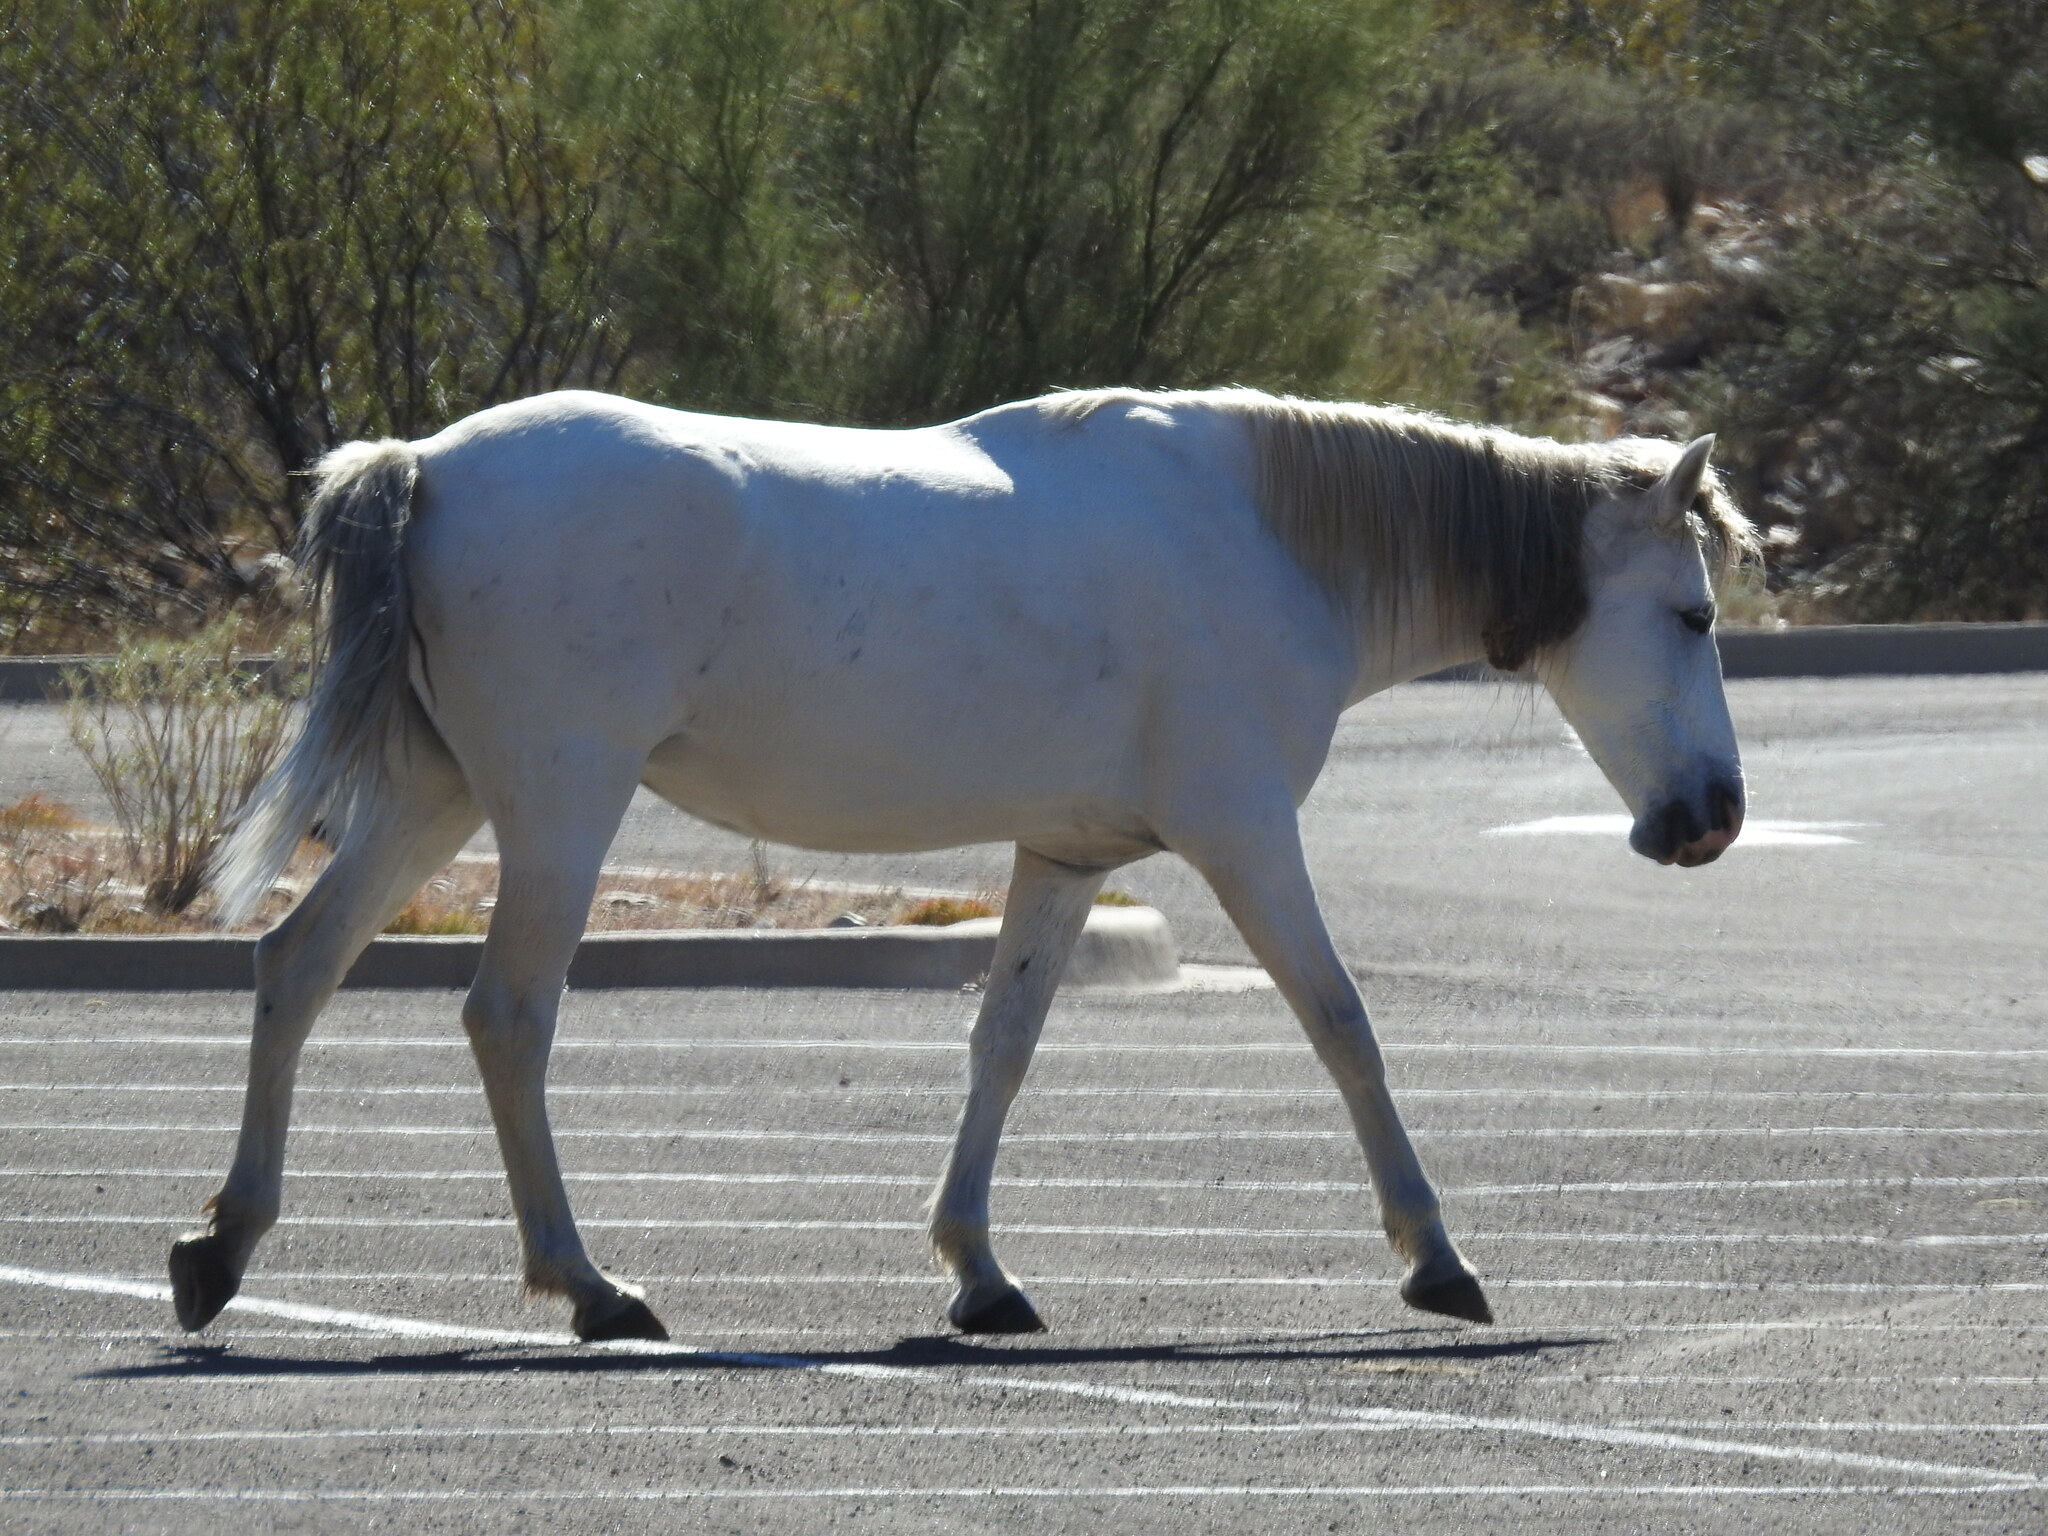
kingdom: Animalia
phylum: Chordata
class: Mammalia
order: Perissodactyla
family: Equidae
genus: Equus
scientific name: Equus caballus
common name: Horse
